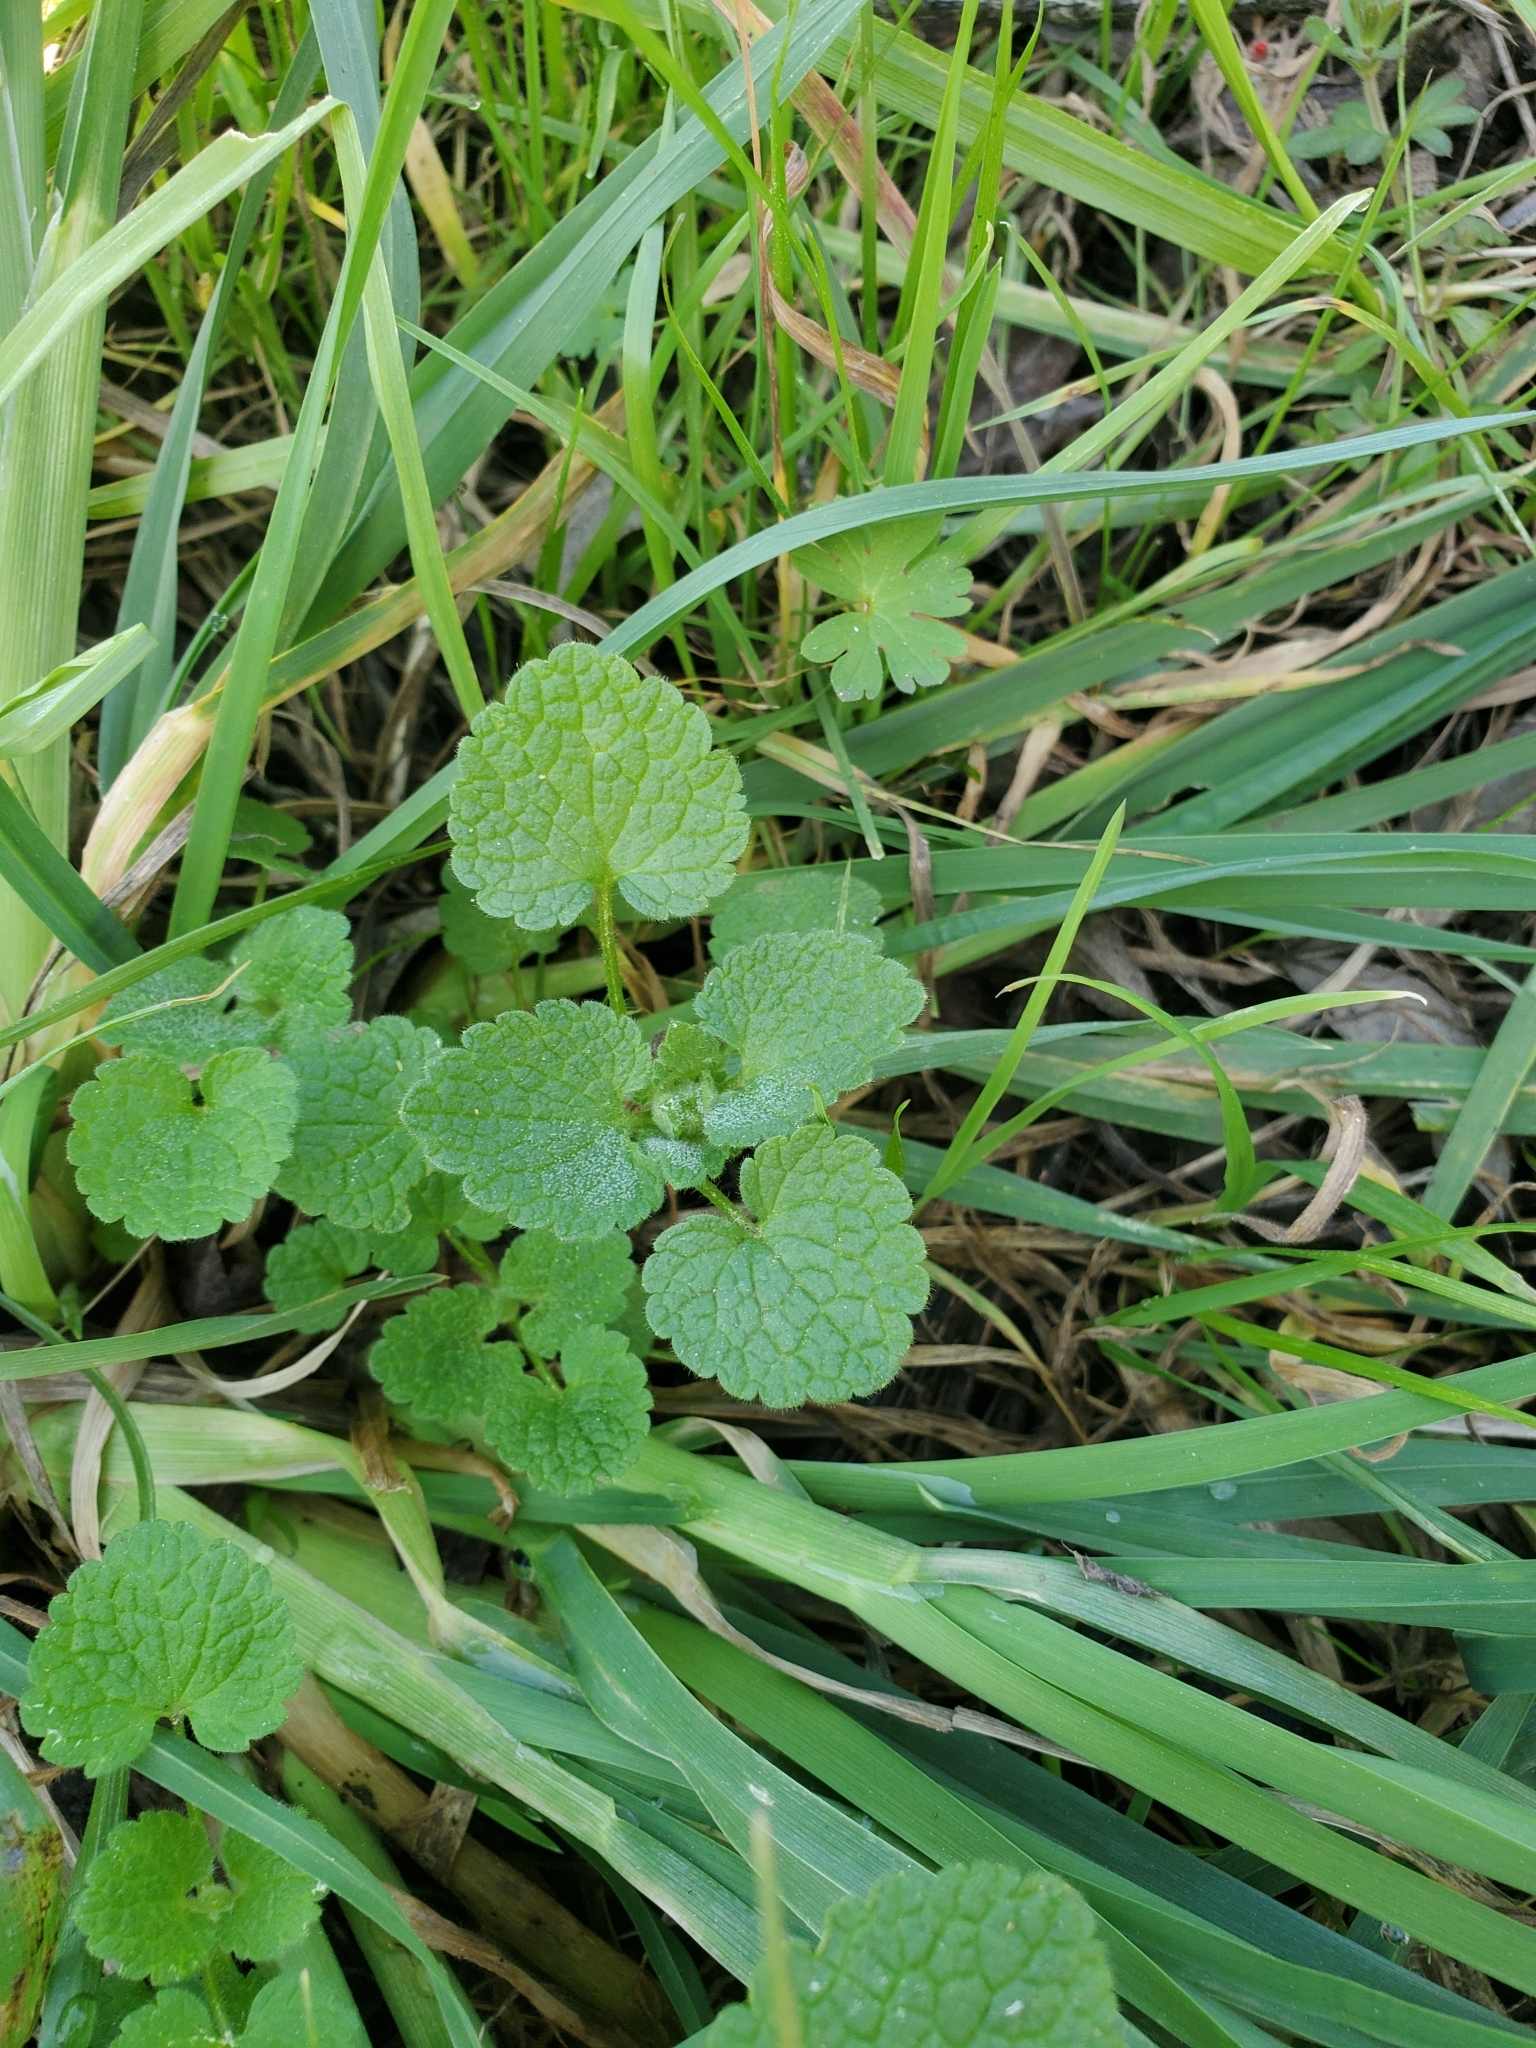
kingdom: Plantae
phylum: Tracheophyta
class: Magnoliopsida
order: Lamiales
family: Lamiaceae
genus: Lamium
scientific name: Lamium purpureum
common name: Red dead-nettle
